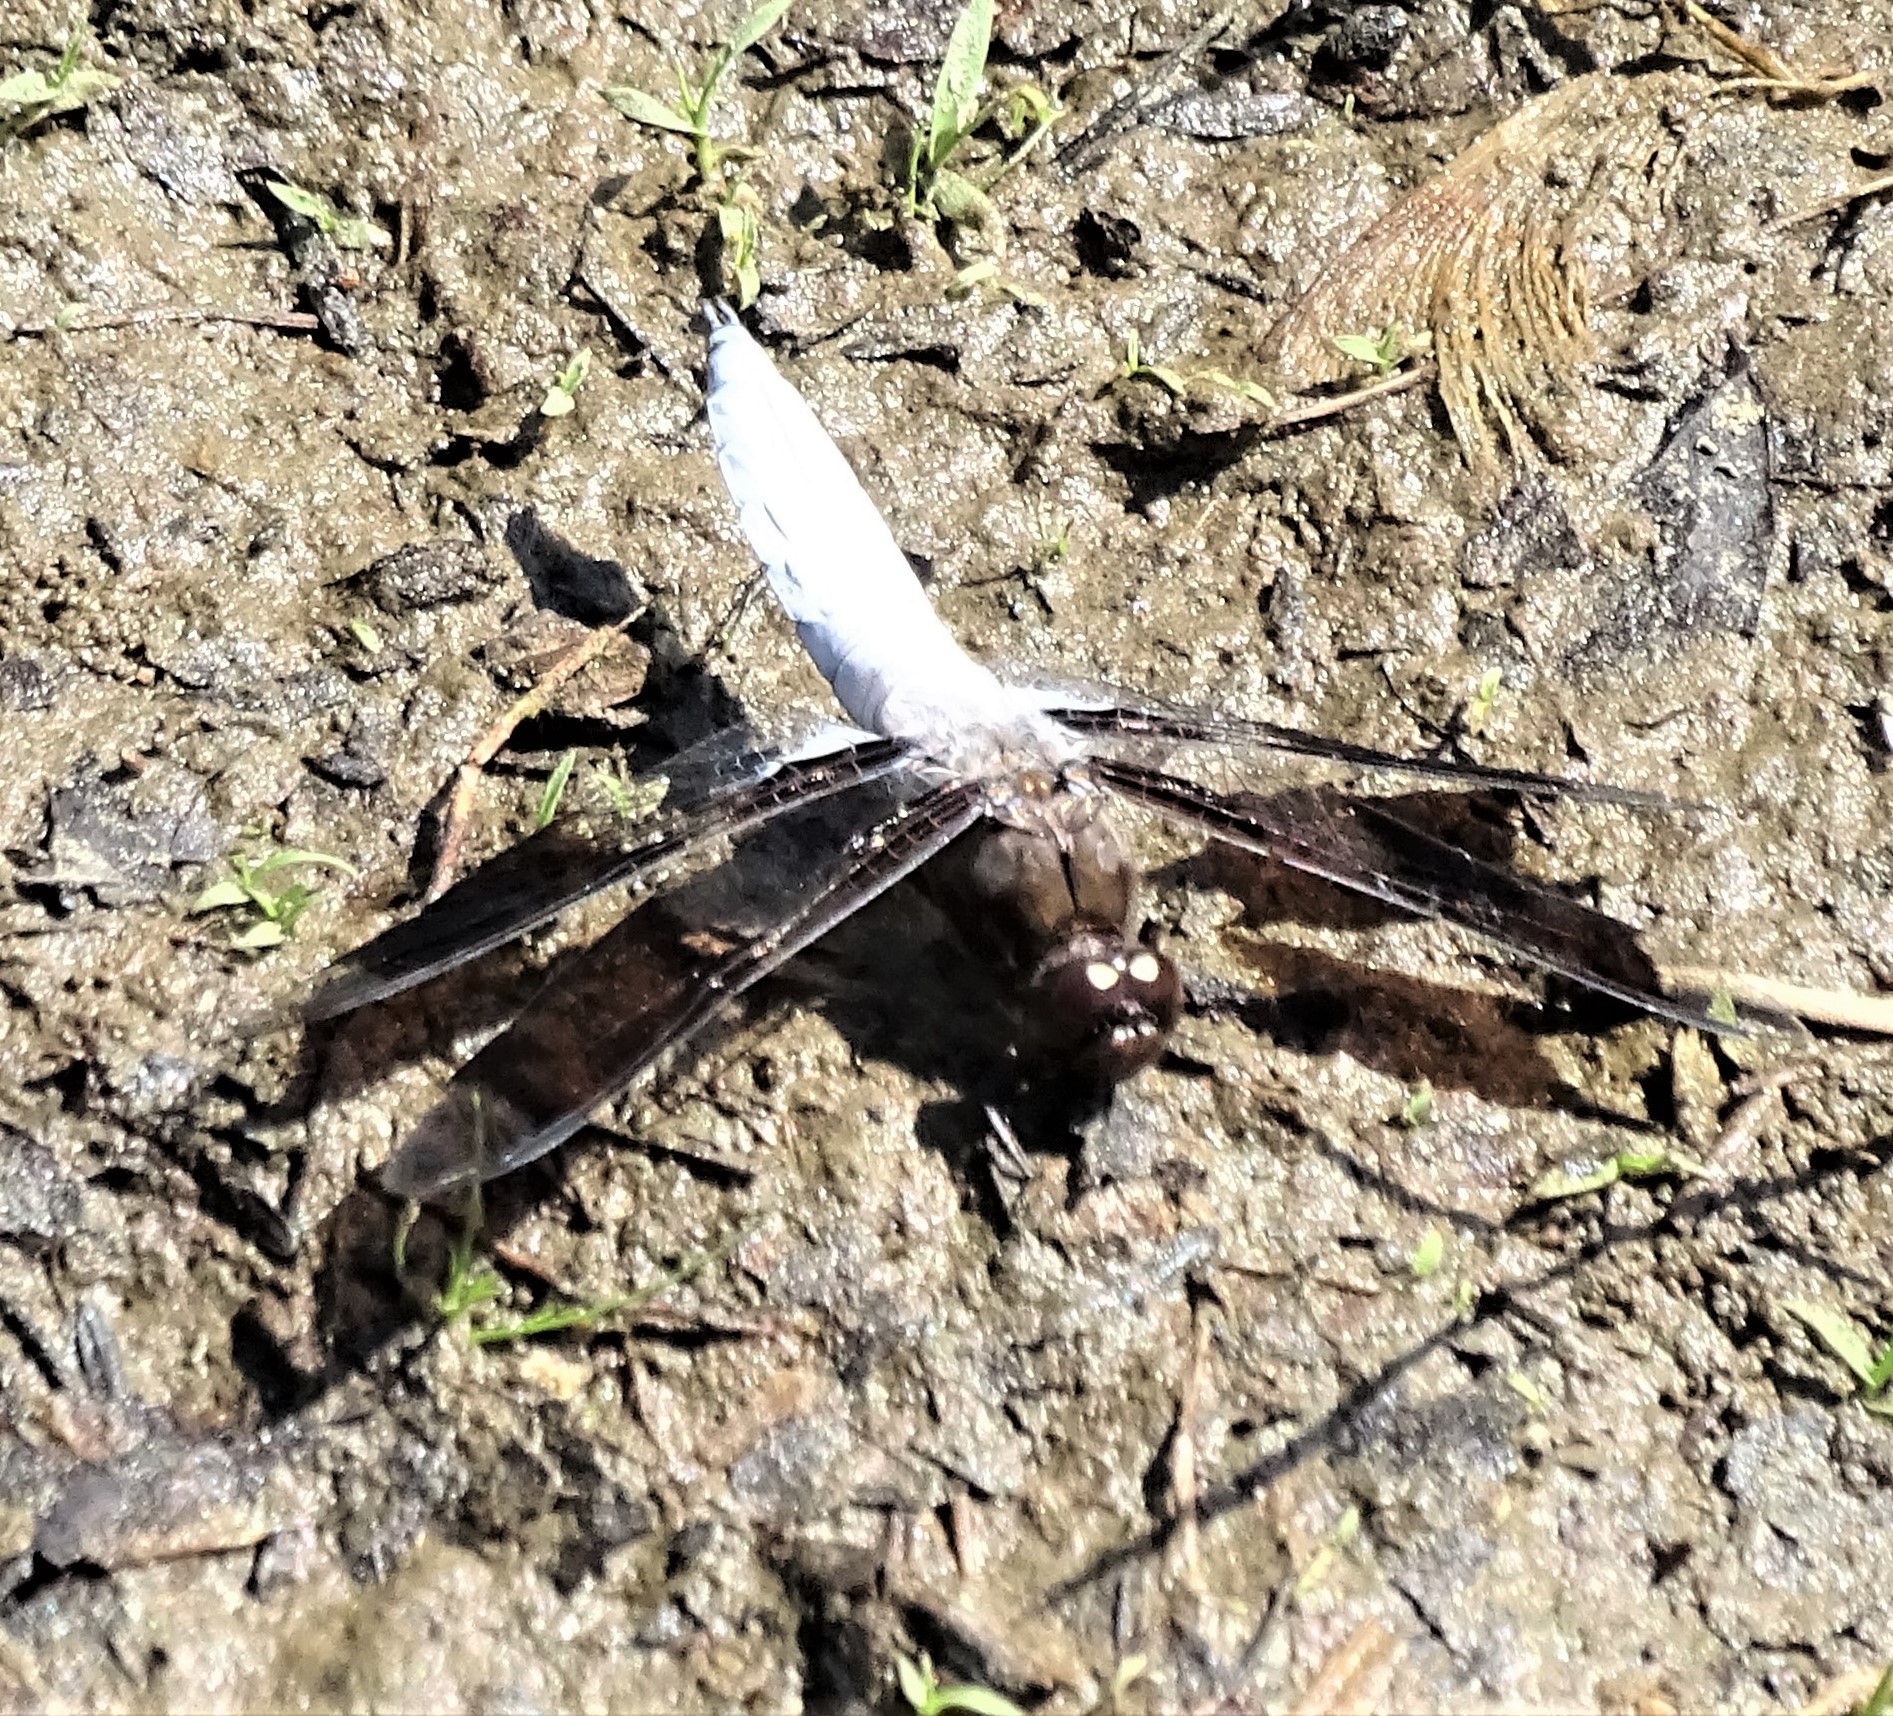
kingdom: Animalia
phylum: Arthropoda
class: Insecta
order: Odonata
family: Libellulidae
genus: Plathemis
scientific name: Plathemis lydia
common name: Common whitetail
